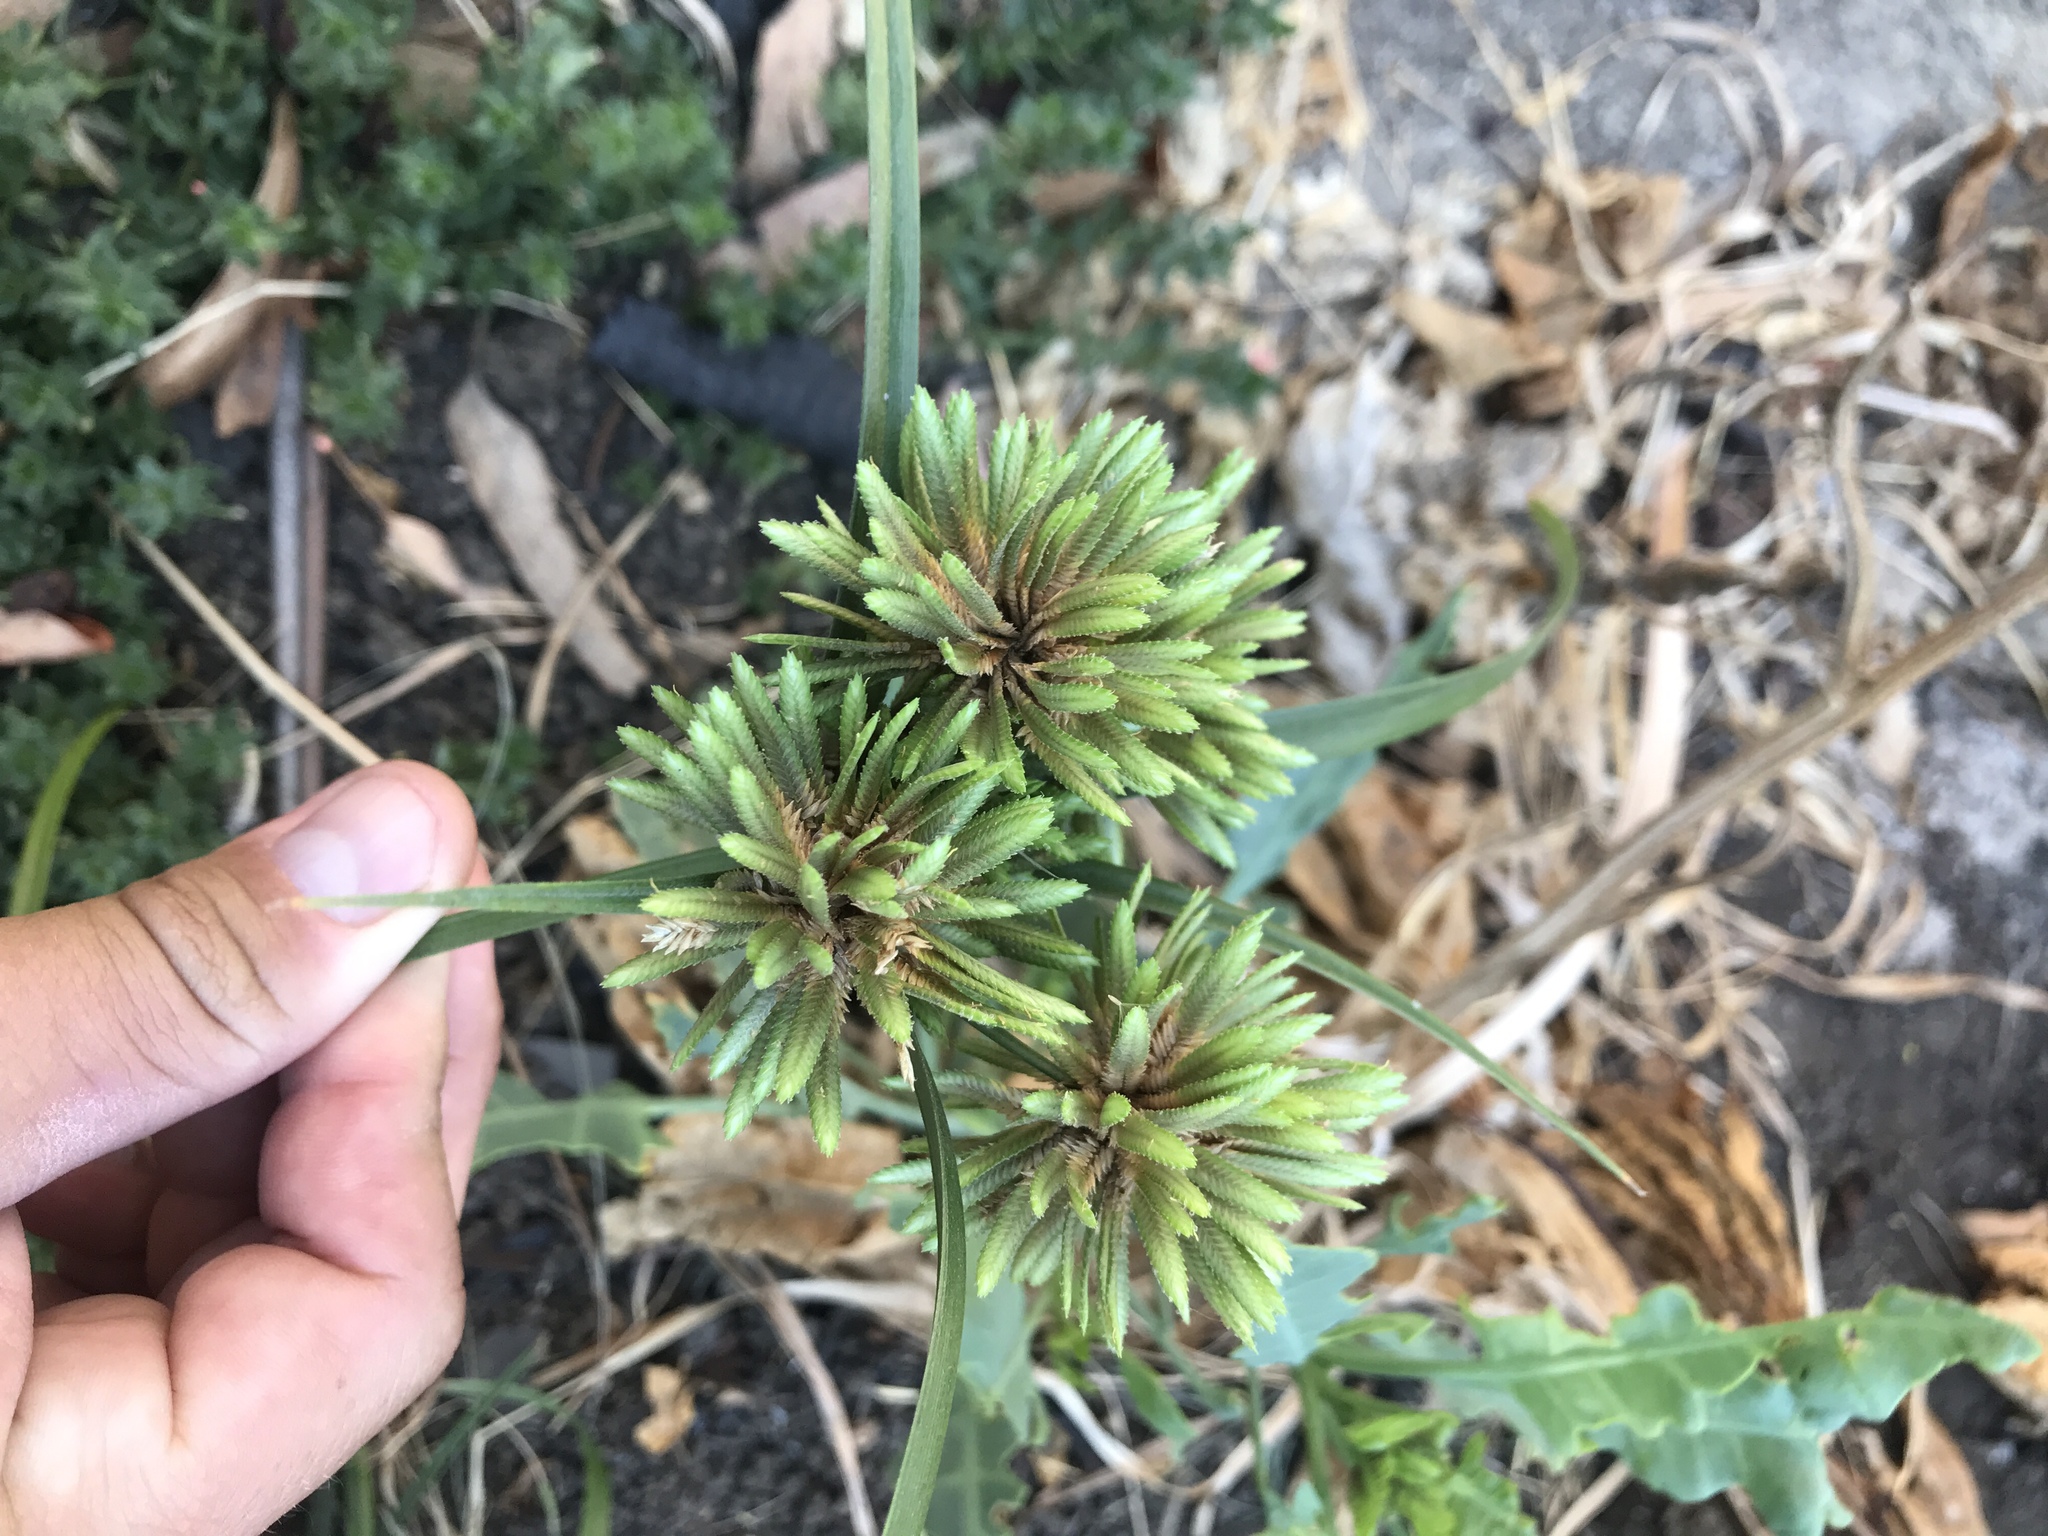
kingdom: Plantae
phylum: Tracheophyta
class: Liliopsida
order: Poales
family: Cyperaceae
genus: Cyperus
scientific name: Cyperus eragrostis
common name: Tall flatsedge
